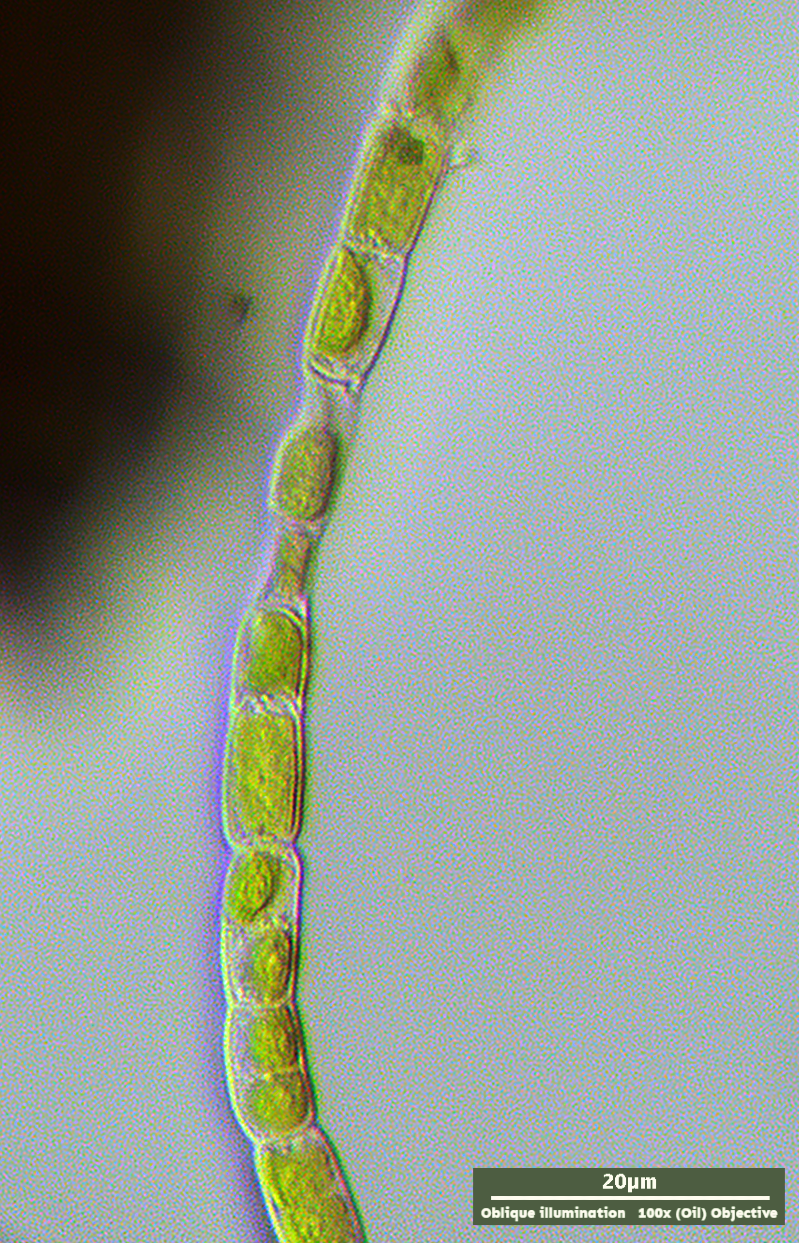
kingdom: Plantae
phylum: Charophyta
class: Klebsormidiophyceae
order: Klebsormidiales
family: Klebsormidiaceae
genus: Klebsormidium
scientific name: Klebsormidium
